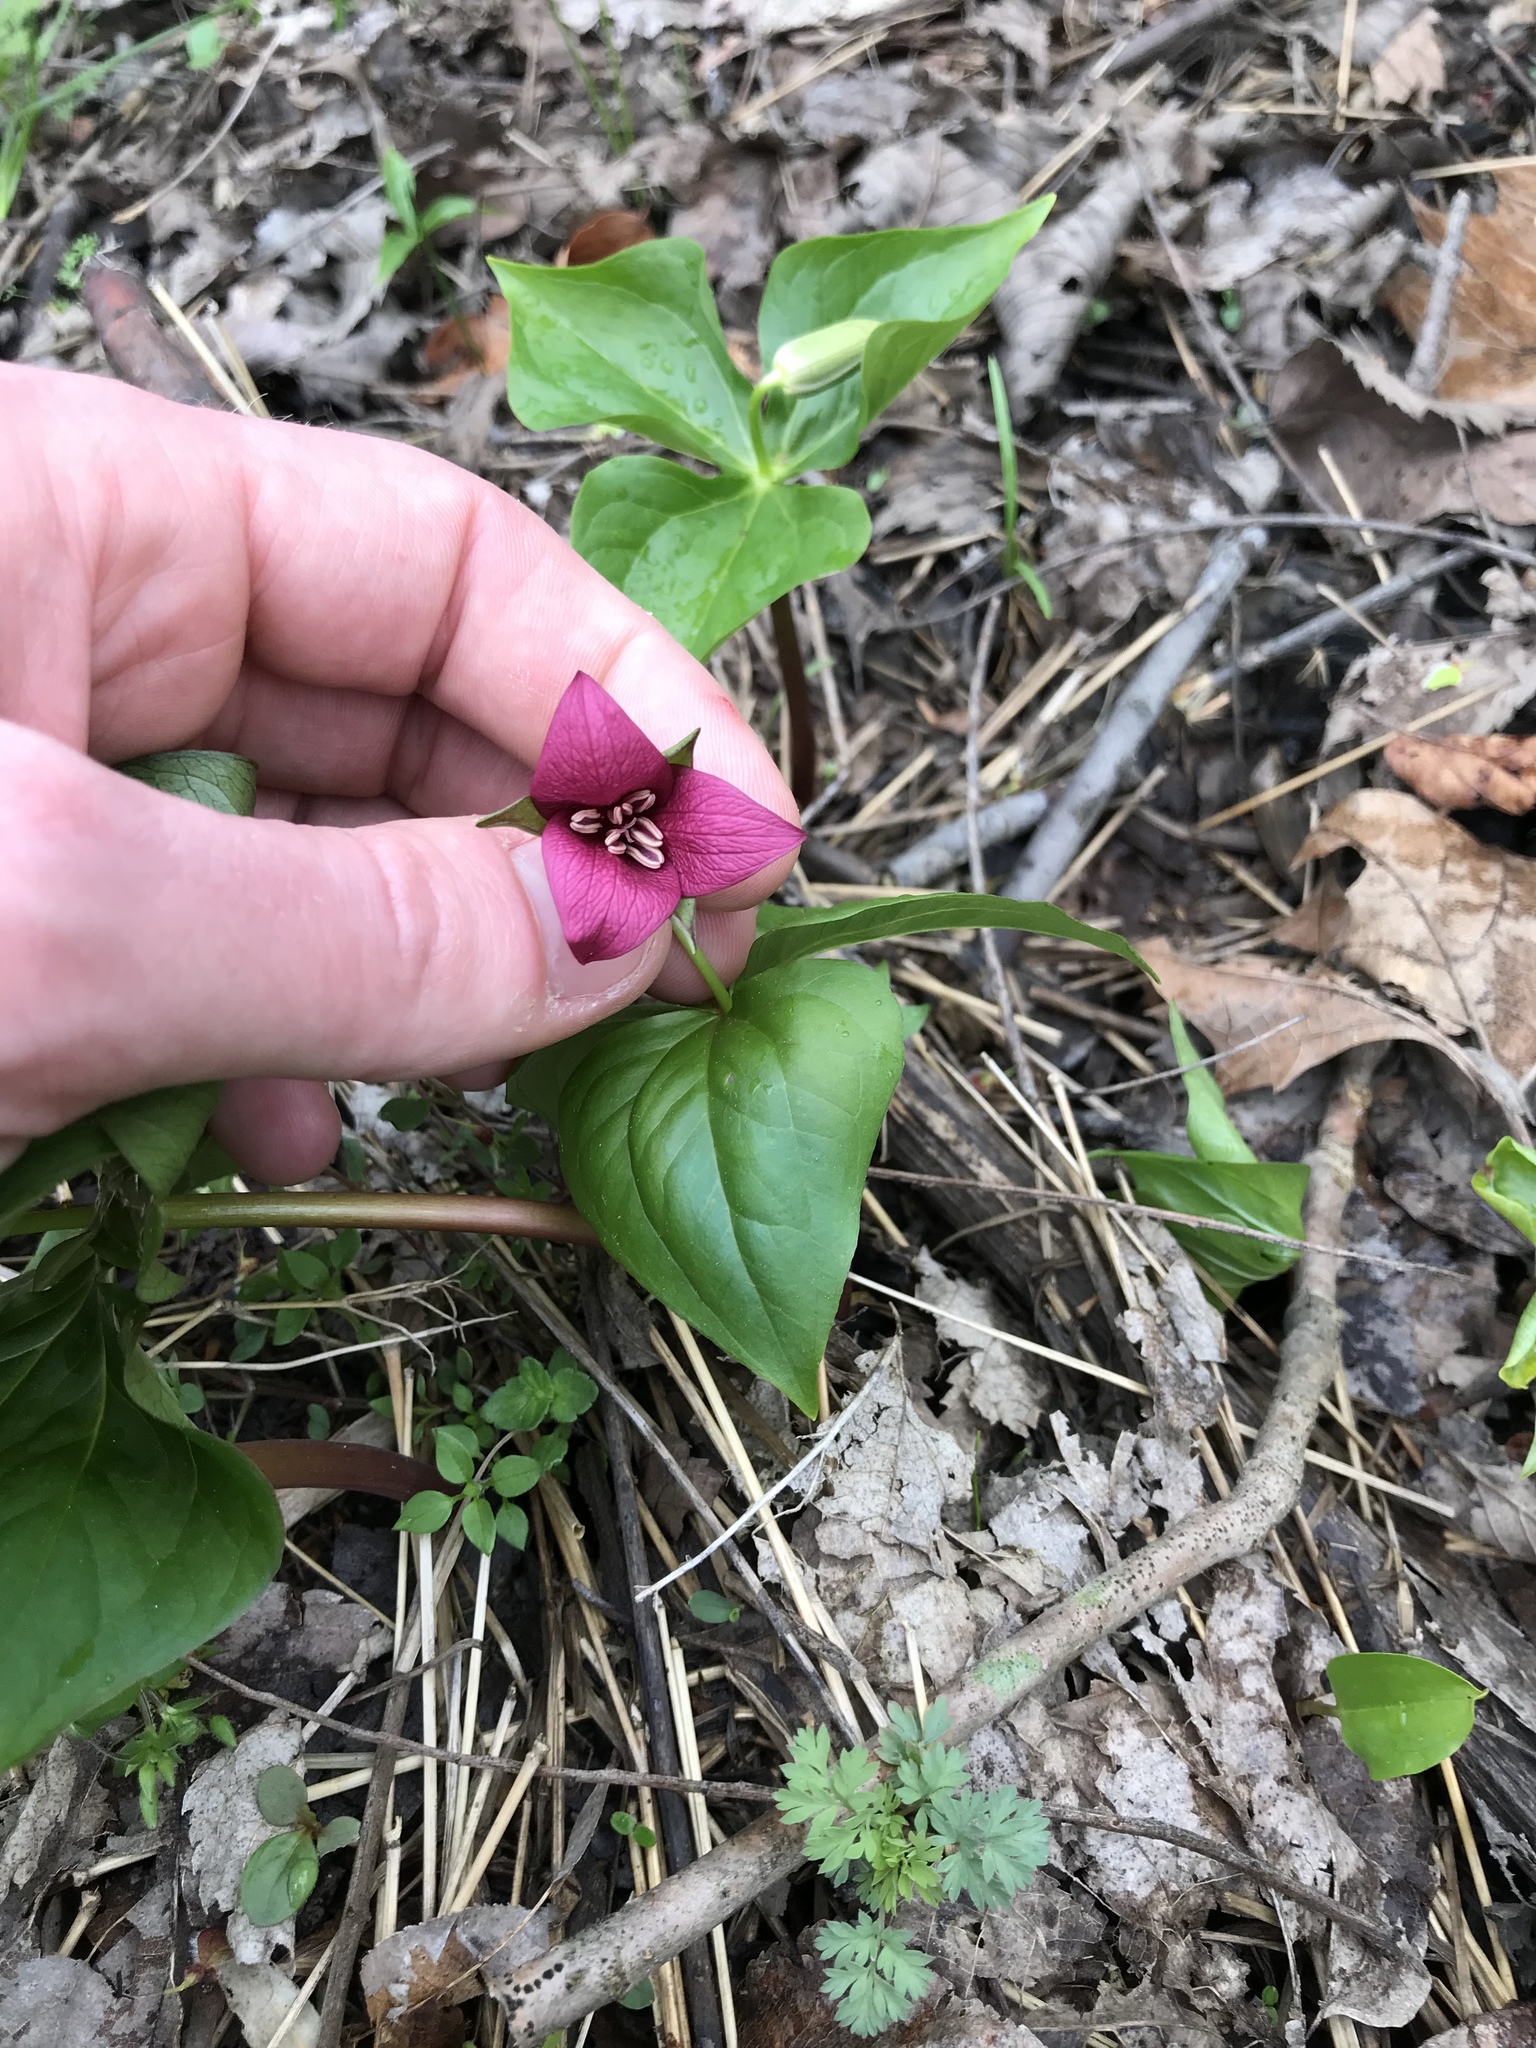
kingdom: Plantae
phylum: Tracheophyta
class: Liliopsida
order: Liliales
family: Melanthiaceae
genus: Trillium
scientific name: Trillium erectum
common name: Purple trillium
